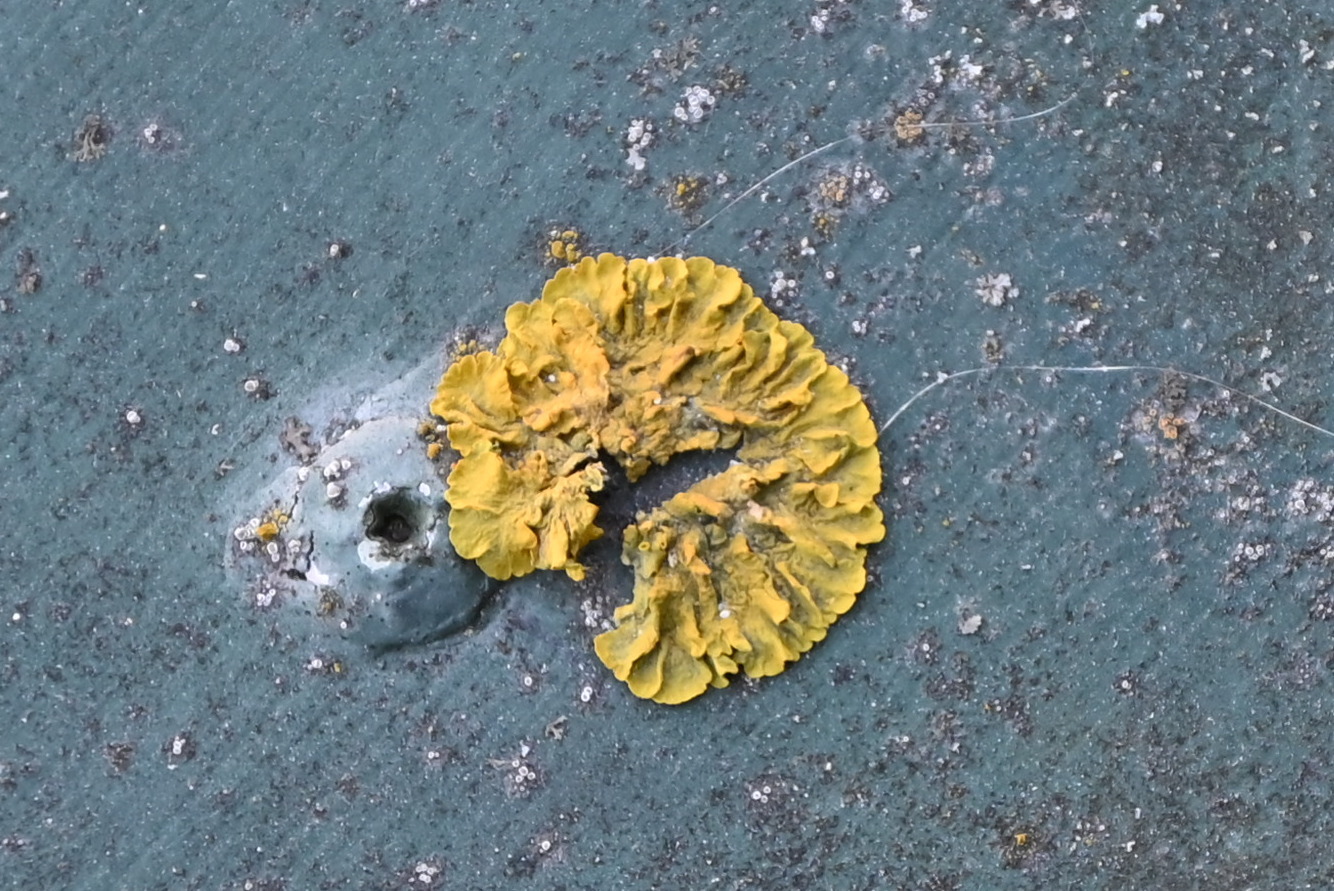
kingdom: Fungi
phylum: Ascomycota
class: Lecanoromycetes
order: Teloschistales
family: Teloschistaceae
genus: Xanthoria
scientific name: Xanthoria parietina
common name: Common orange lichen
